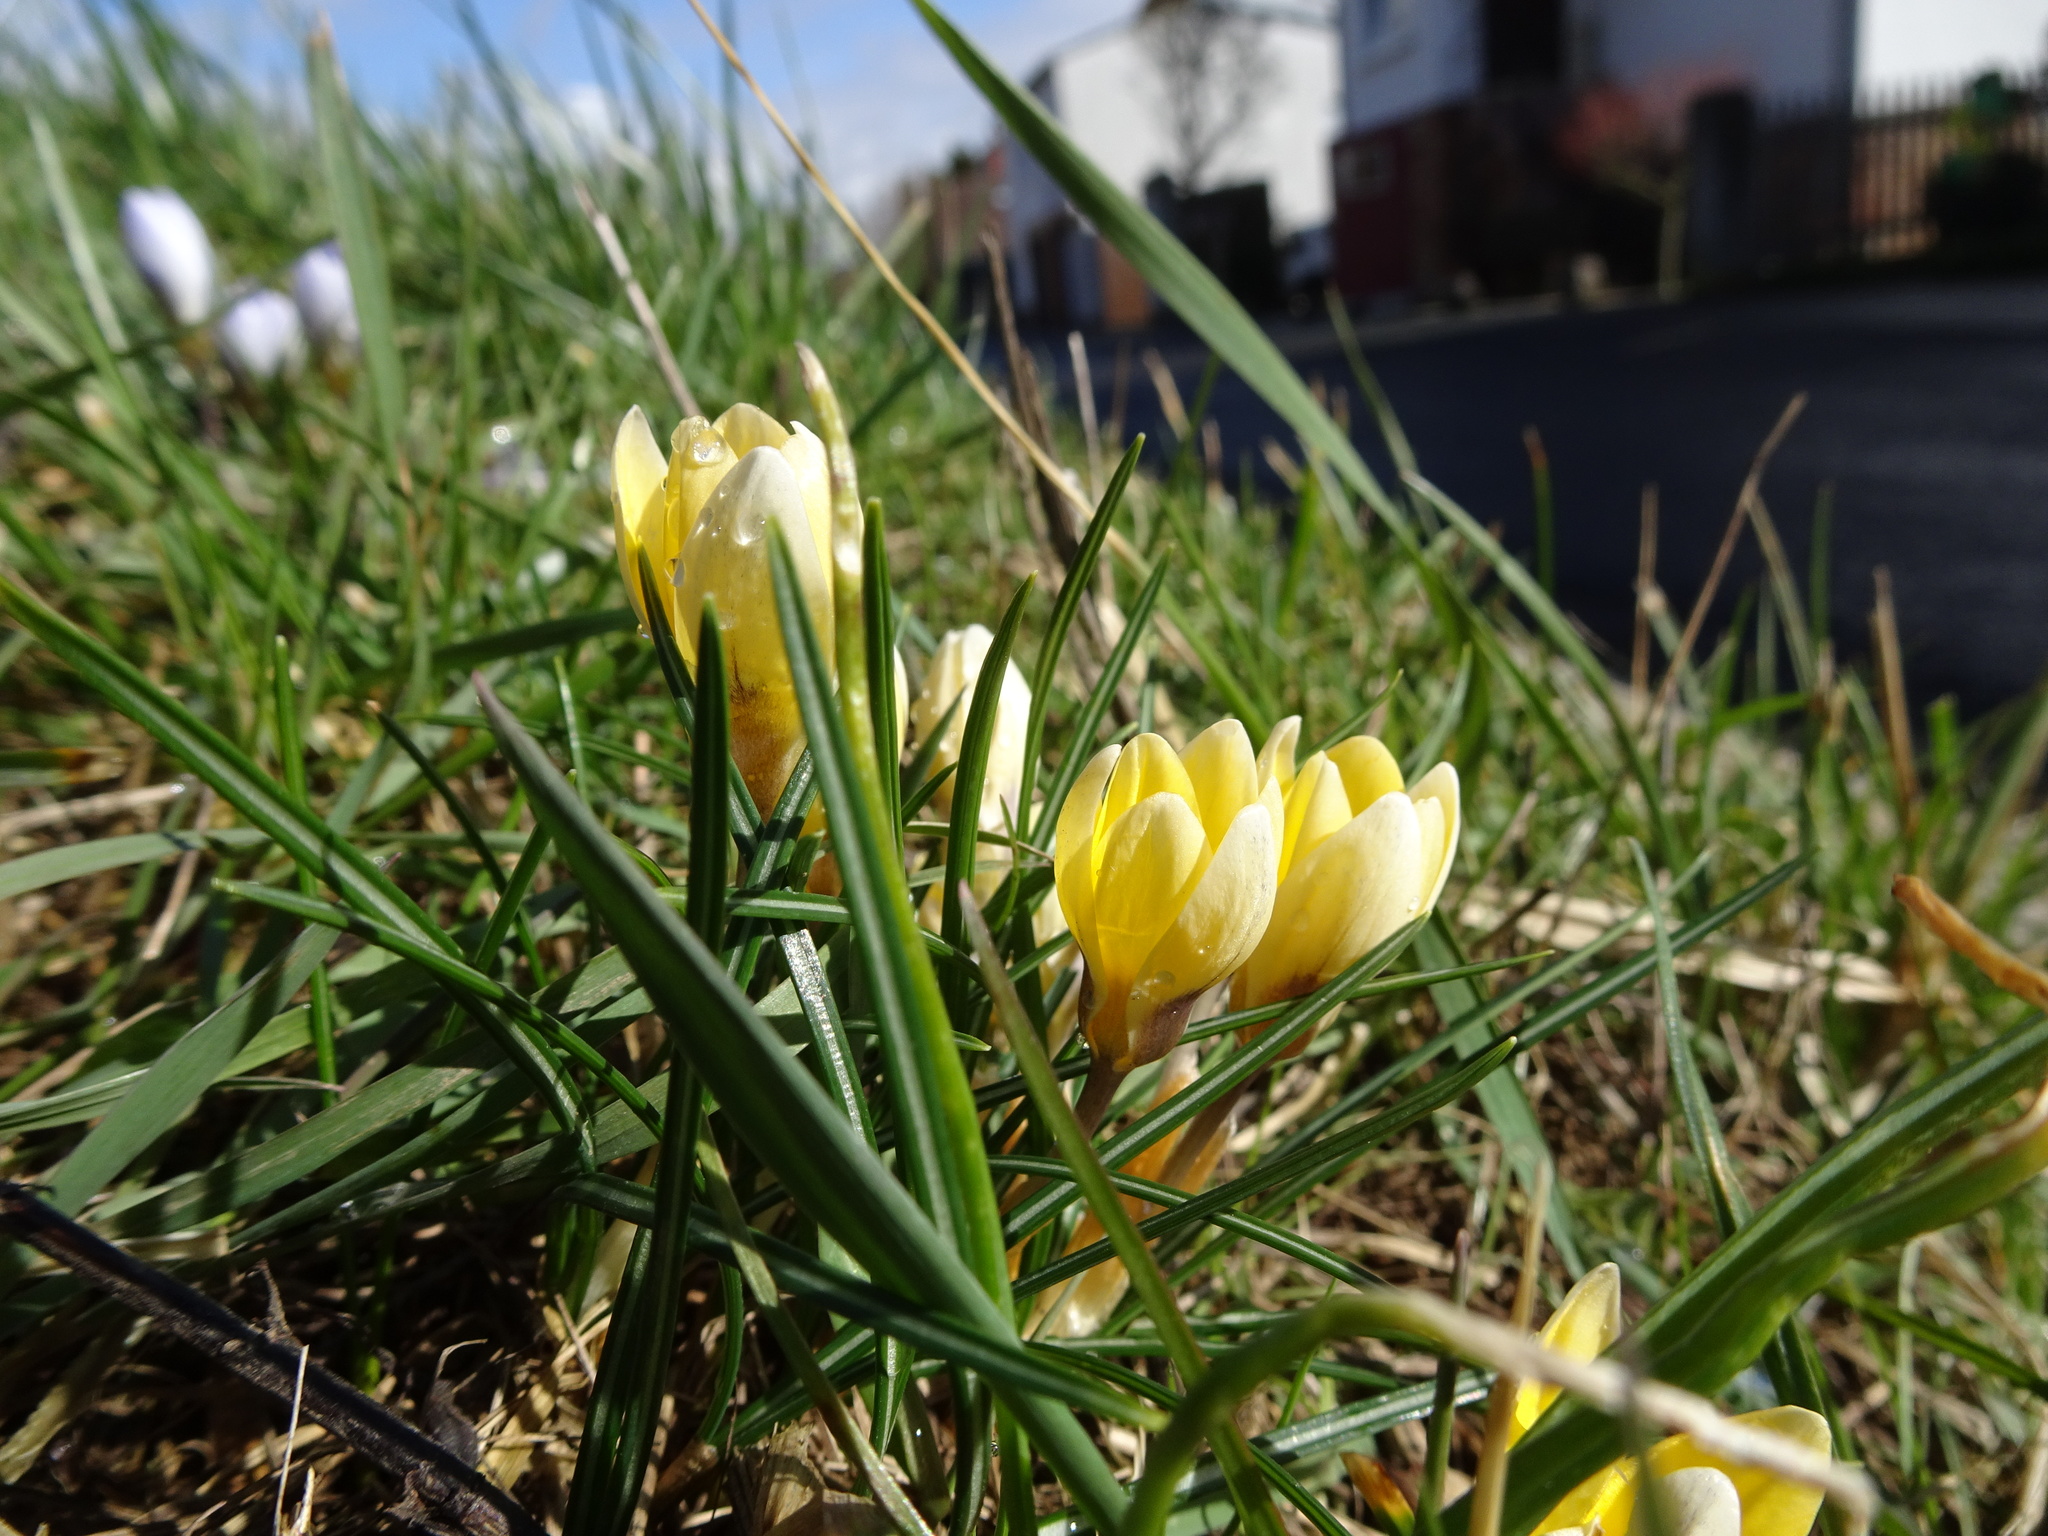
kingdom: Plantae
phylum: Tracheophyta
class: Liliopsida
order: Asparagales
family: Iridaceae
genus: Crocus
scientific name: Crocus chrysanthus
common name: Golden crocus
